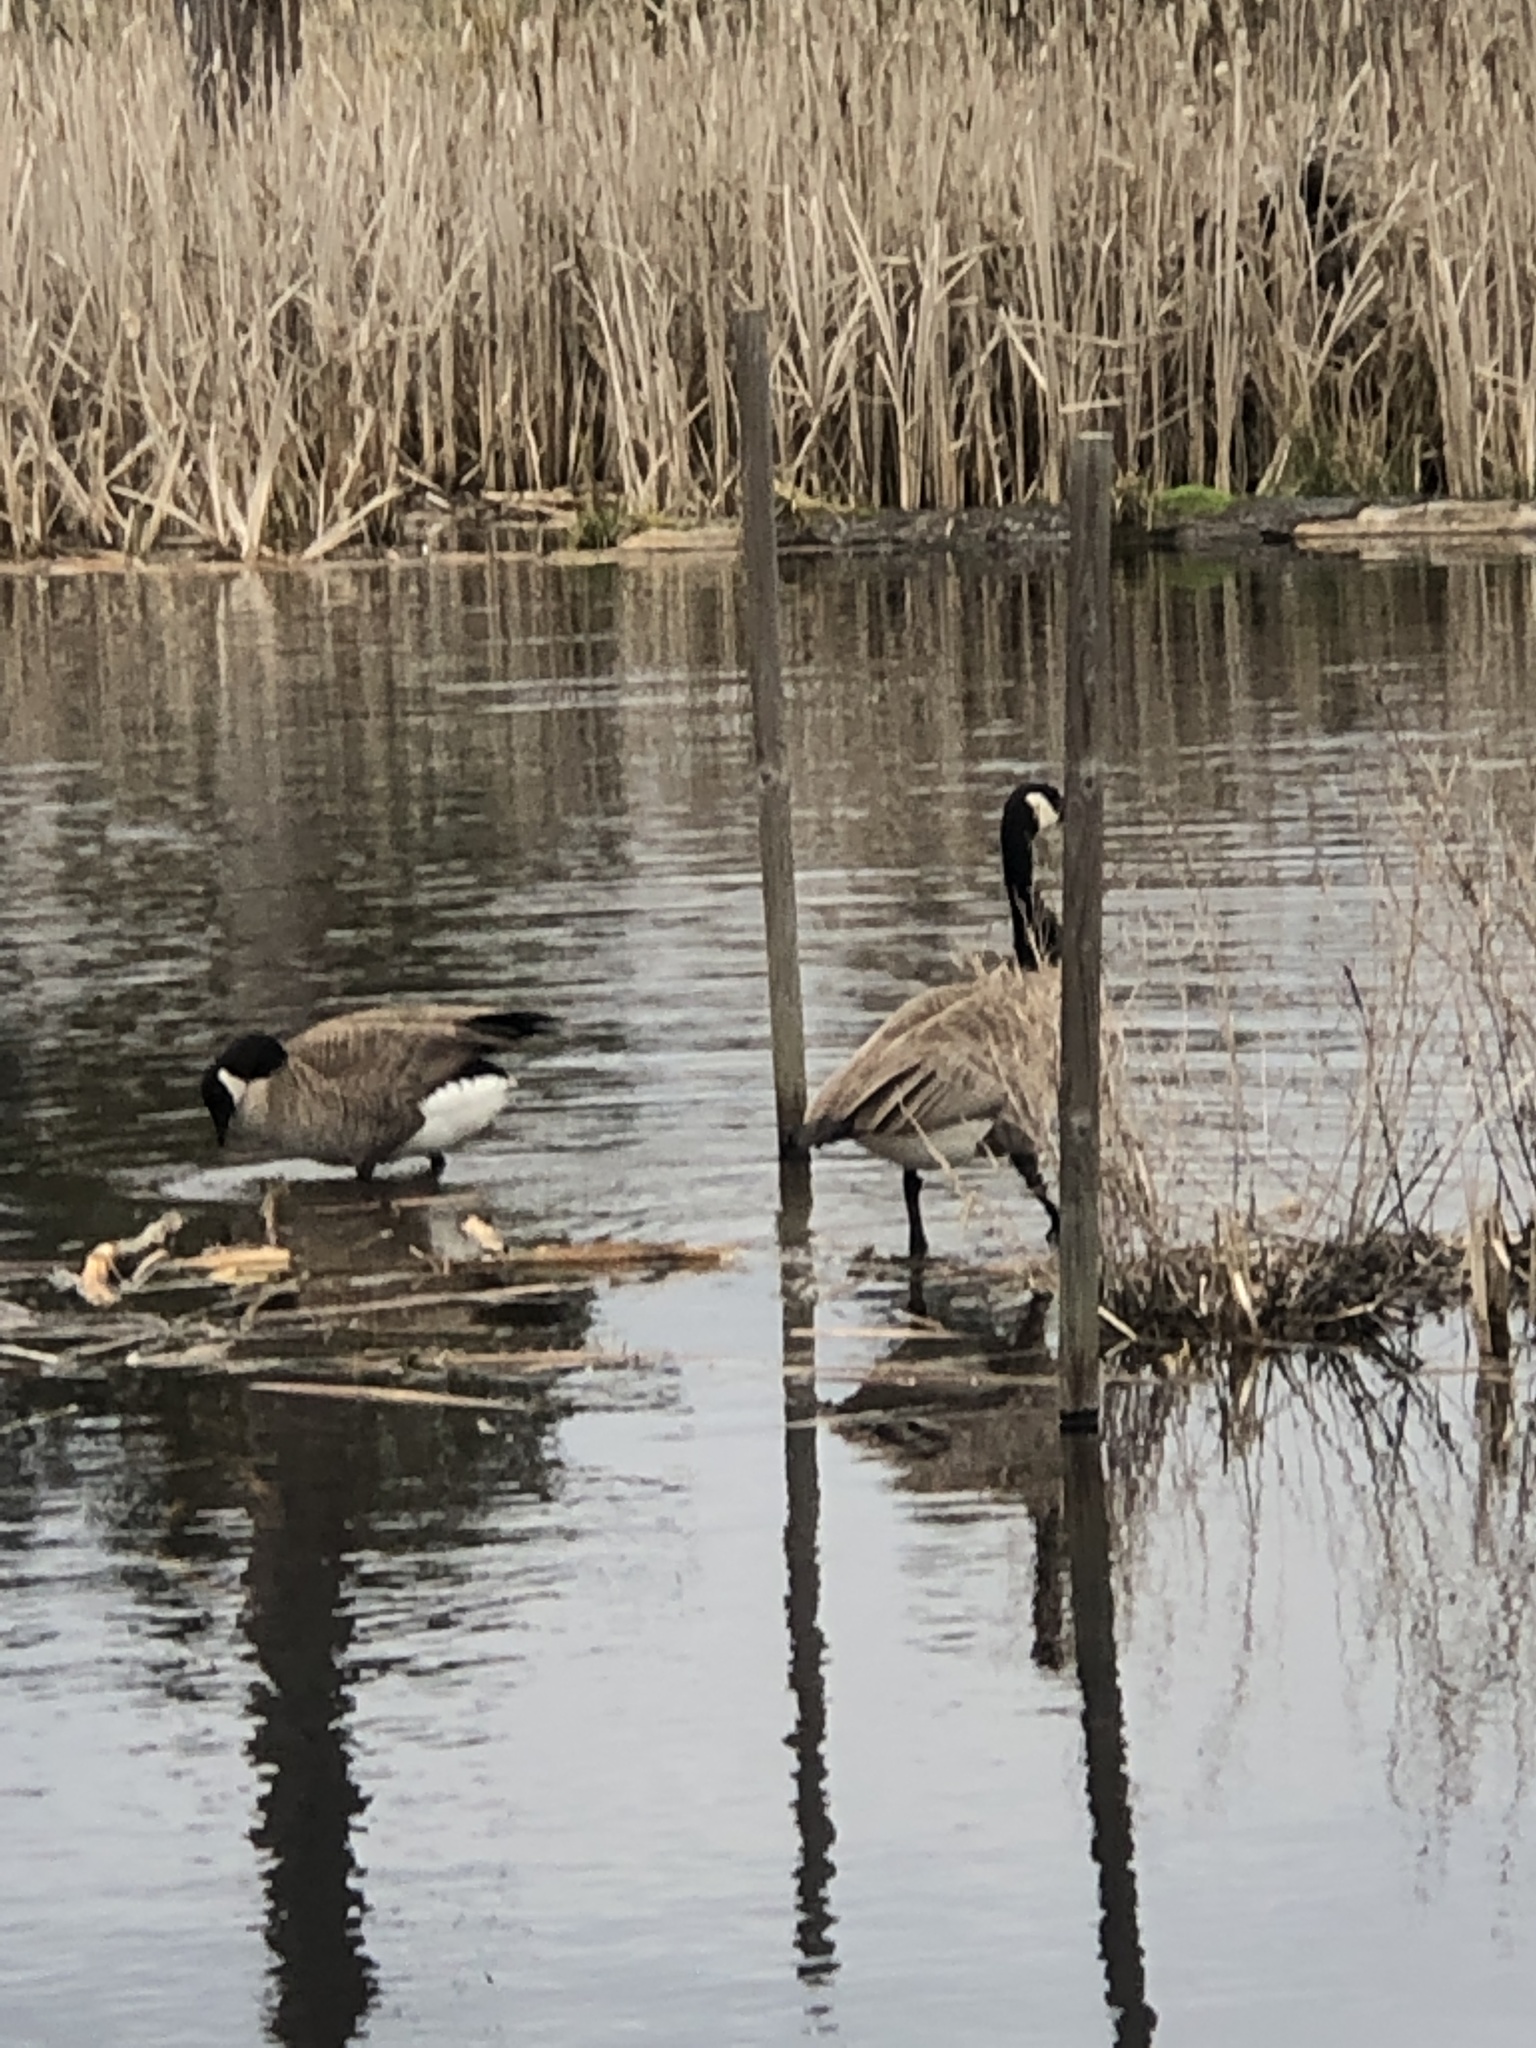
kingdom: Animalia
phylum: Chordata
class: Aves
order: Anseriformes
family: Anatidae
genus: Branta
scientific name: Branta canadensis
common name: Canada goose
